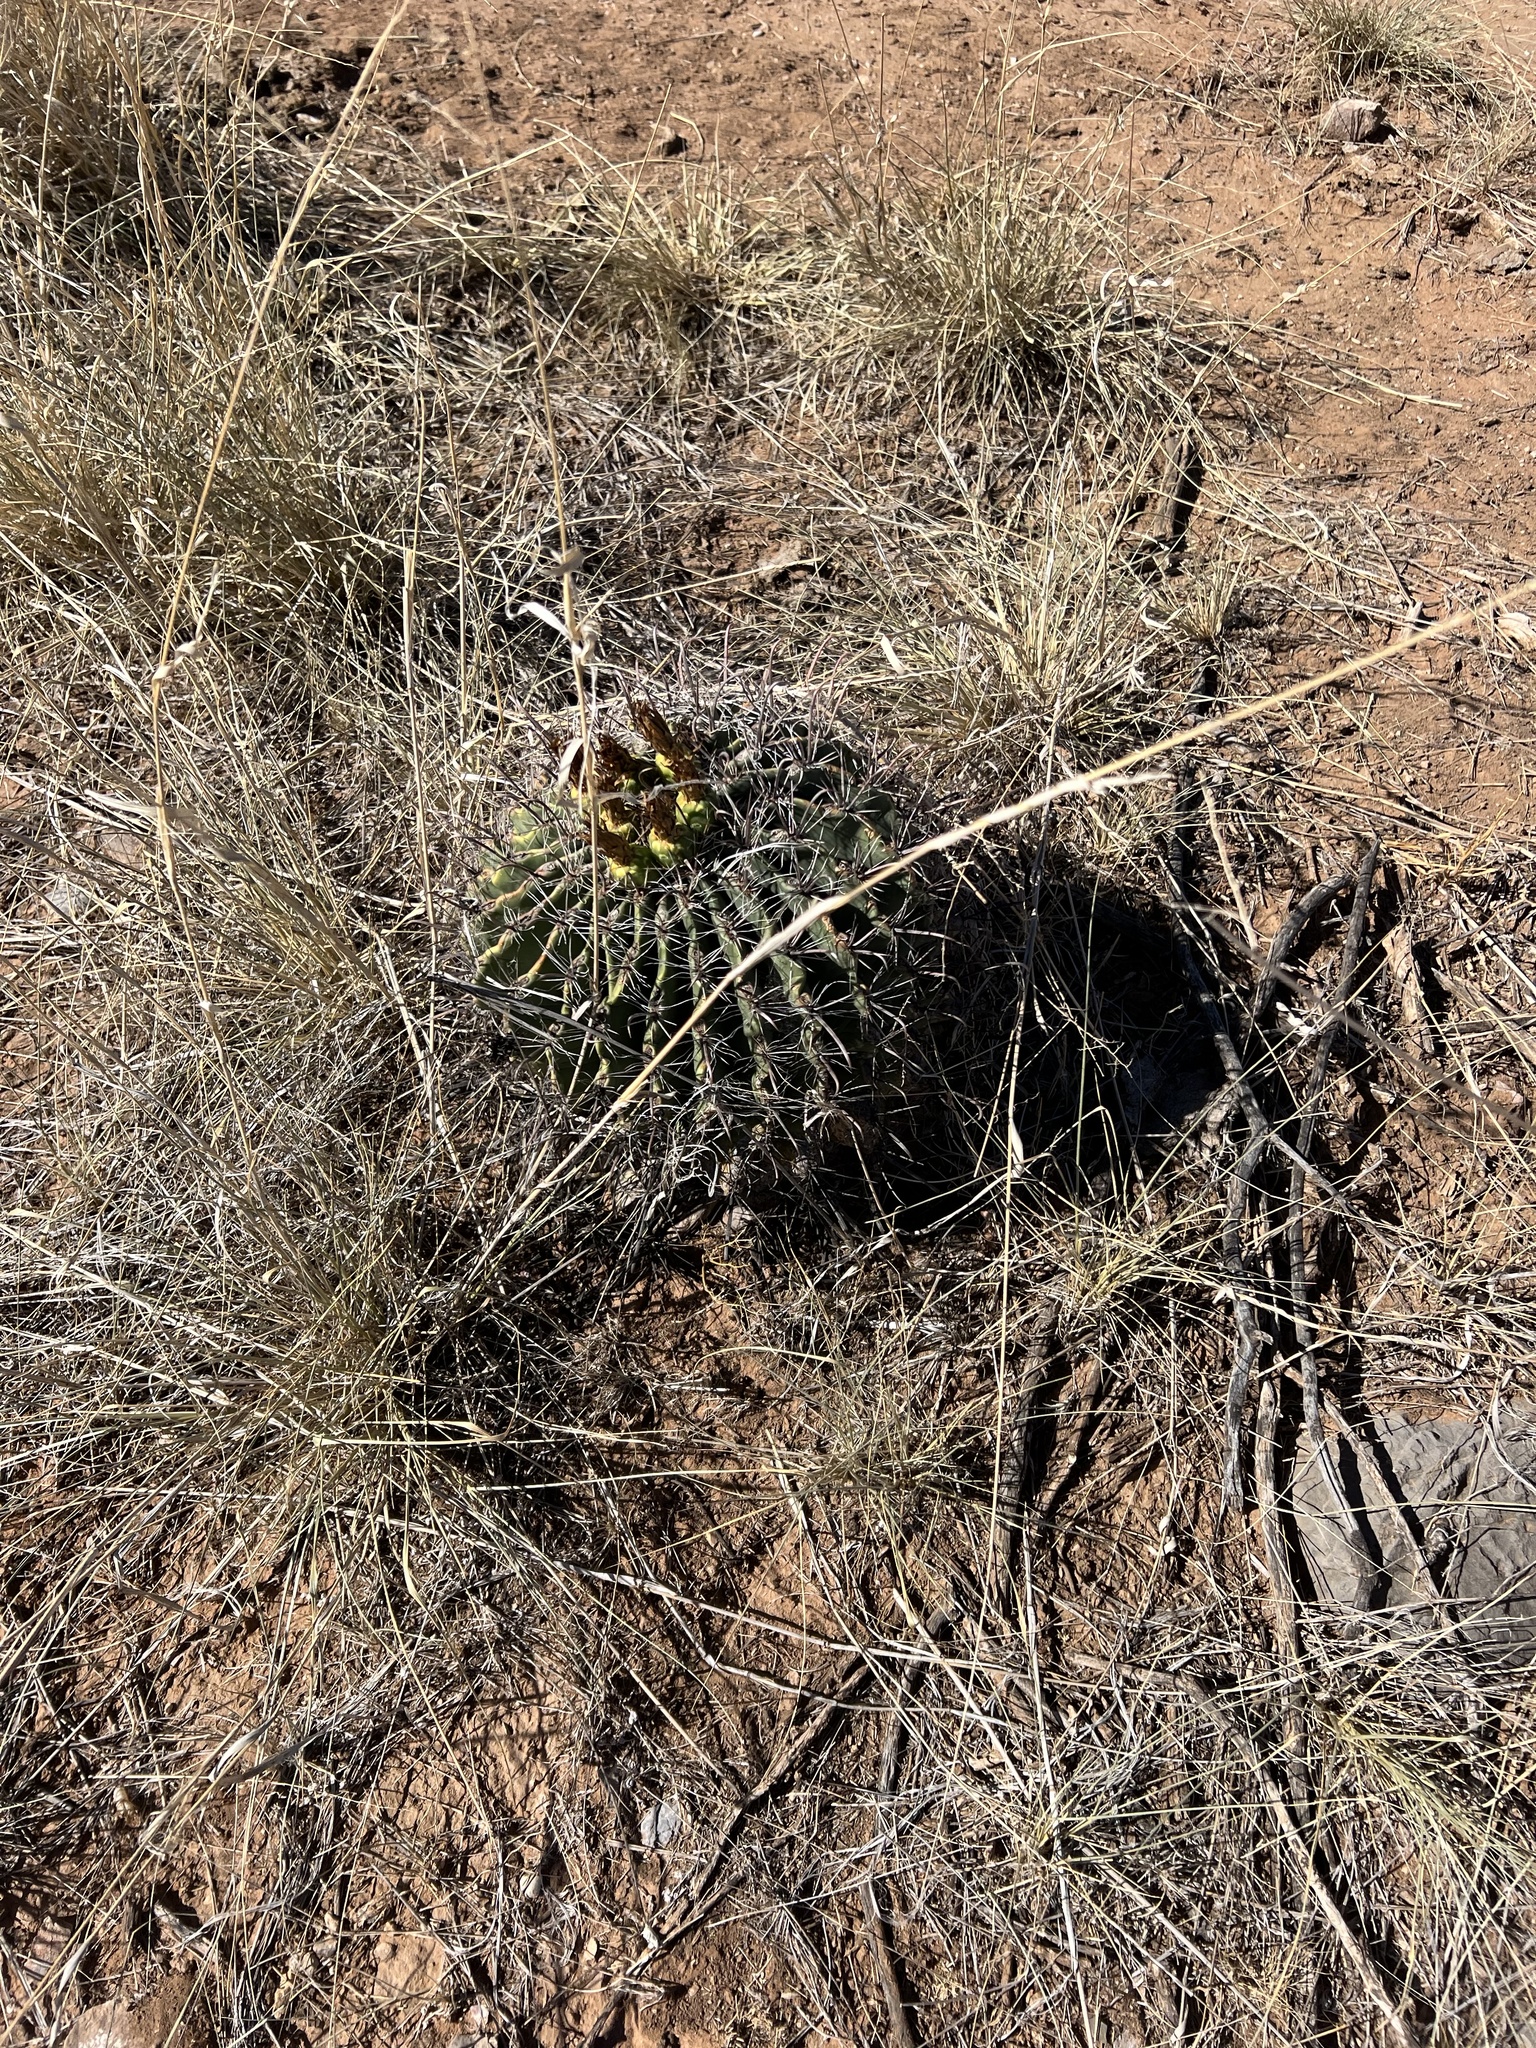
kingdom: Plantae
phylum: Tracheophyta
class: Magnoliopsida
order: Caryophyllales
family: Cactaceae
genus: Ferocactus
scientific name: Ferocactus wislizeni
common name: Candy barrel cactus
